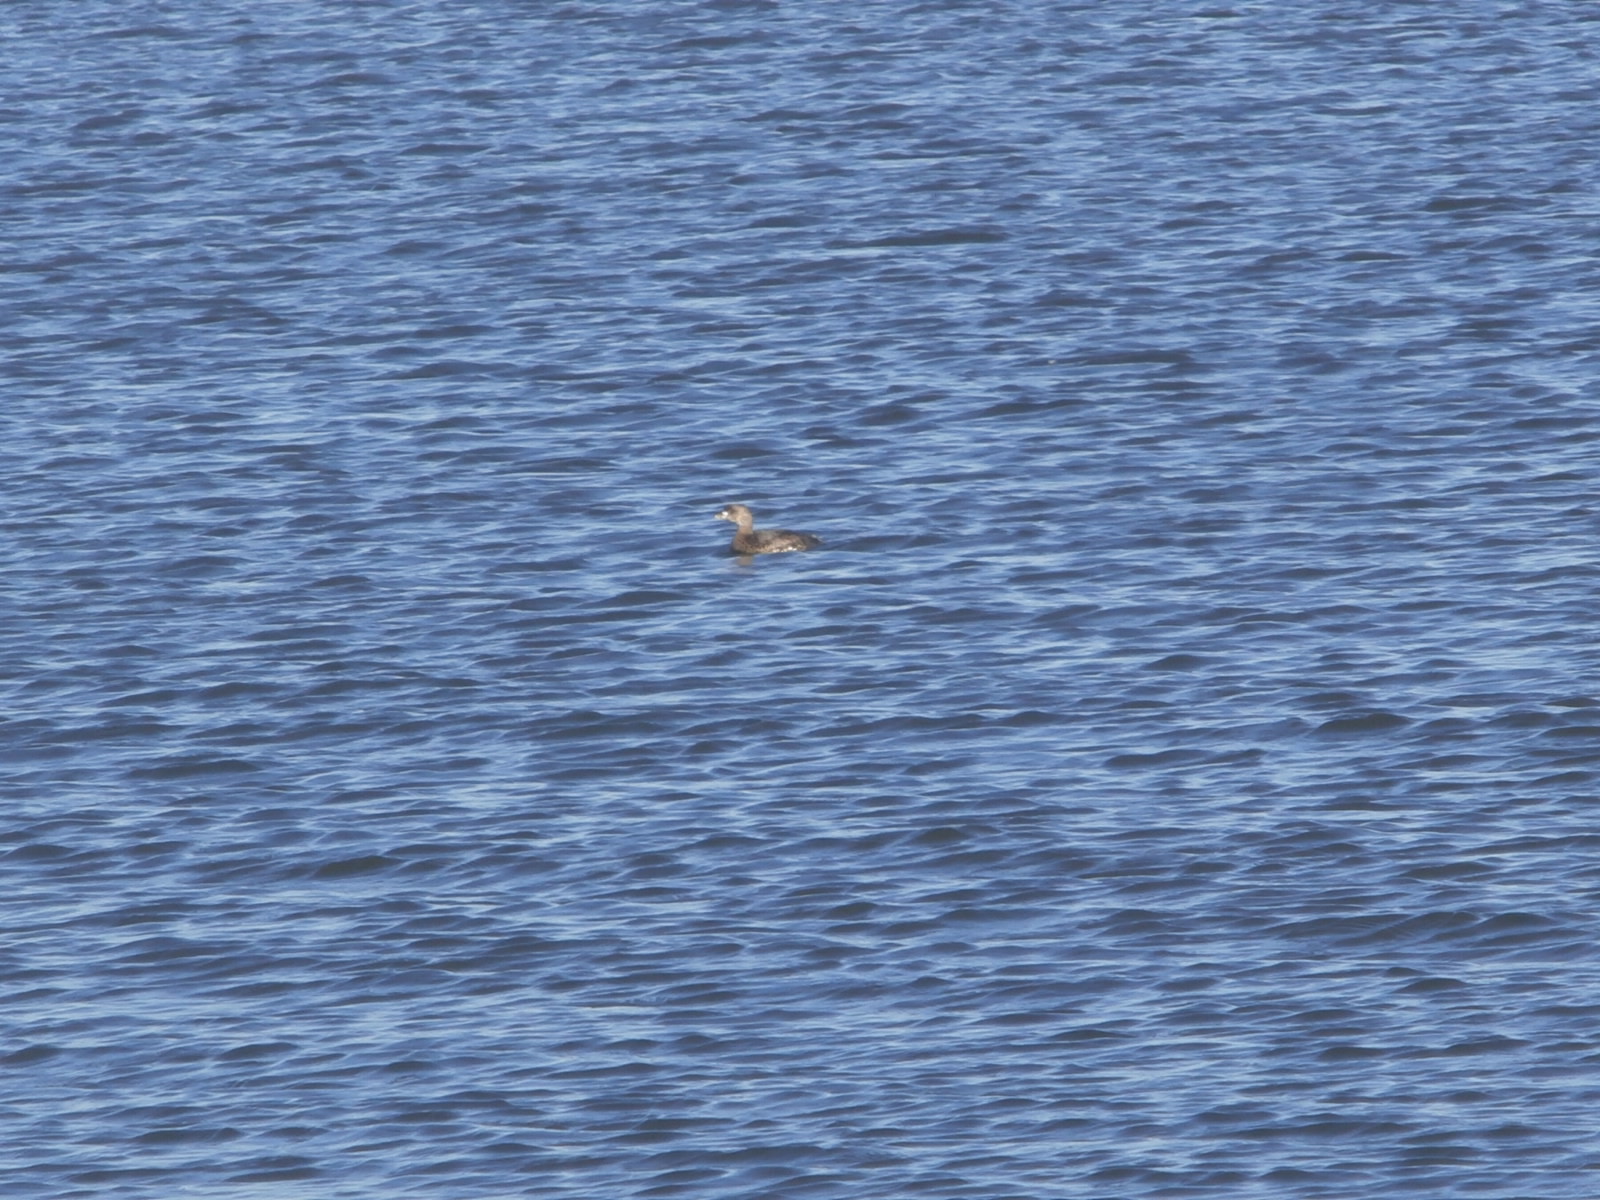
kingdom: Animalia
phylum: Chordata
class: Aves
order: Podicipediformes
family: Podicipedidae
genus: Podilymbus
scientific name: Podilymbus podiceps
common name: Pied-billed grebe
